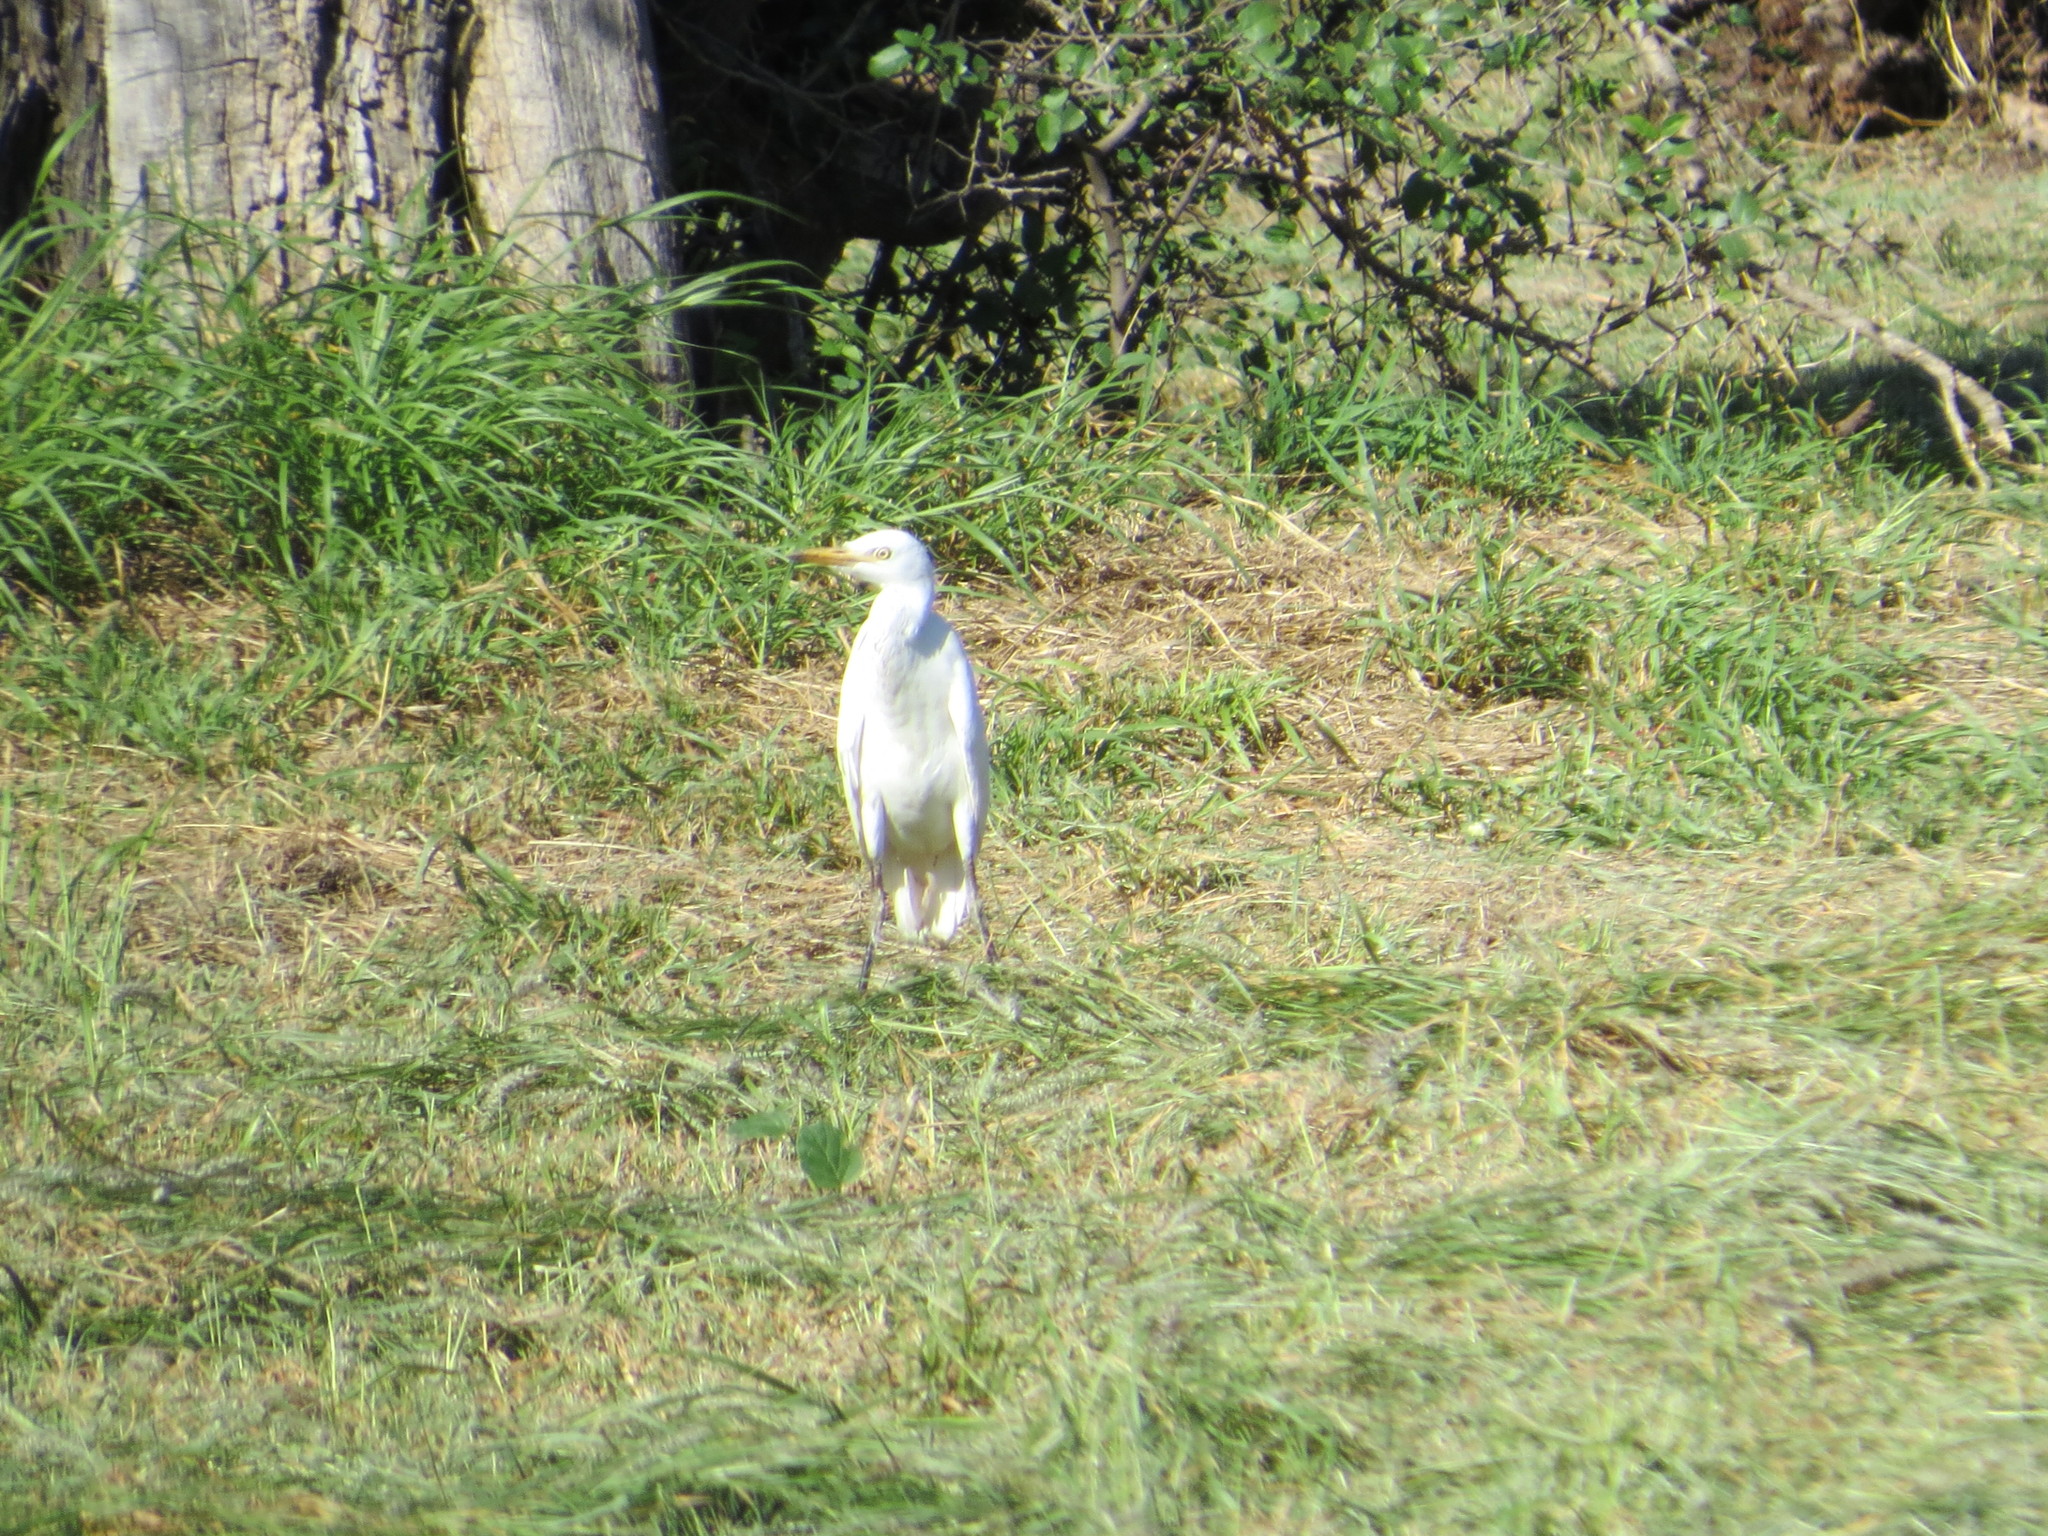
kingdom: Animalia
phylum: Chordata
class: Aves
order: Pelecaniformes
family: Ardeidae
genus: Bubulcus
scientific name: Bubulcus ibis
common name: Cattle egret
